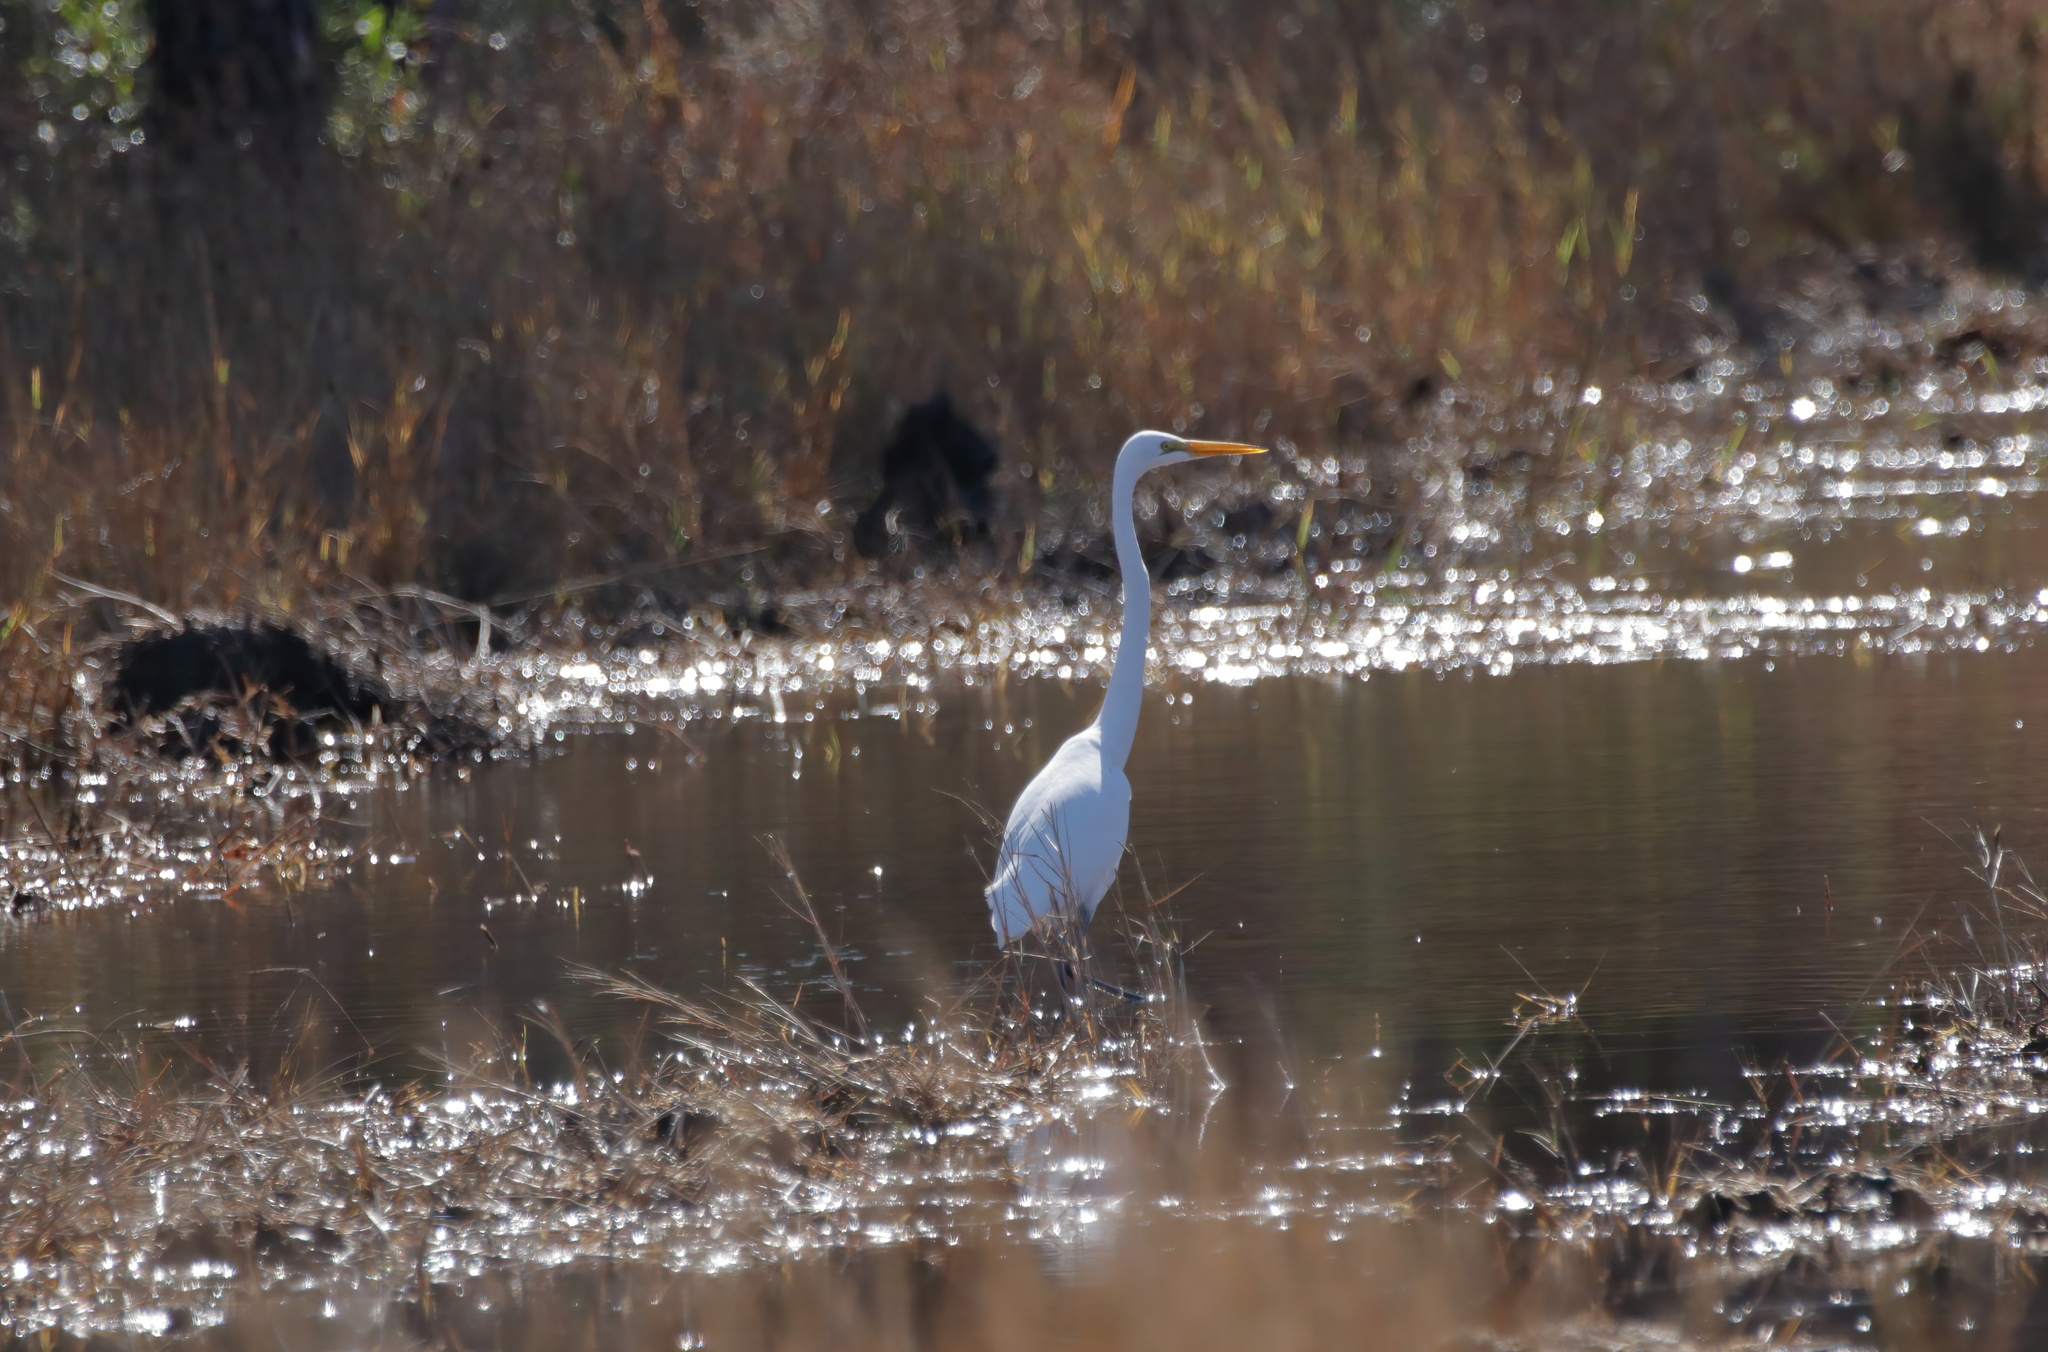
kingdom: Animalia
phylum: Chordata
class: Aves
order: Pelecaniformes
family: Ardeidae
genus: Ardea
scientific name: Ardea alba
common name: Great egret
